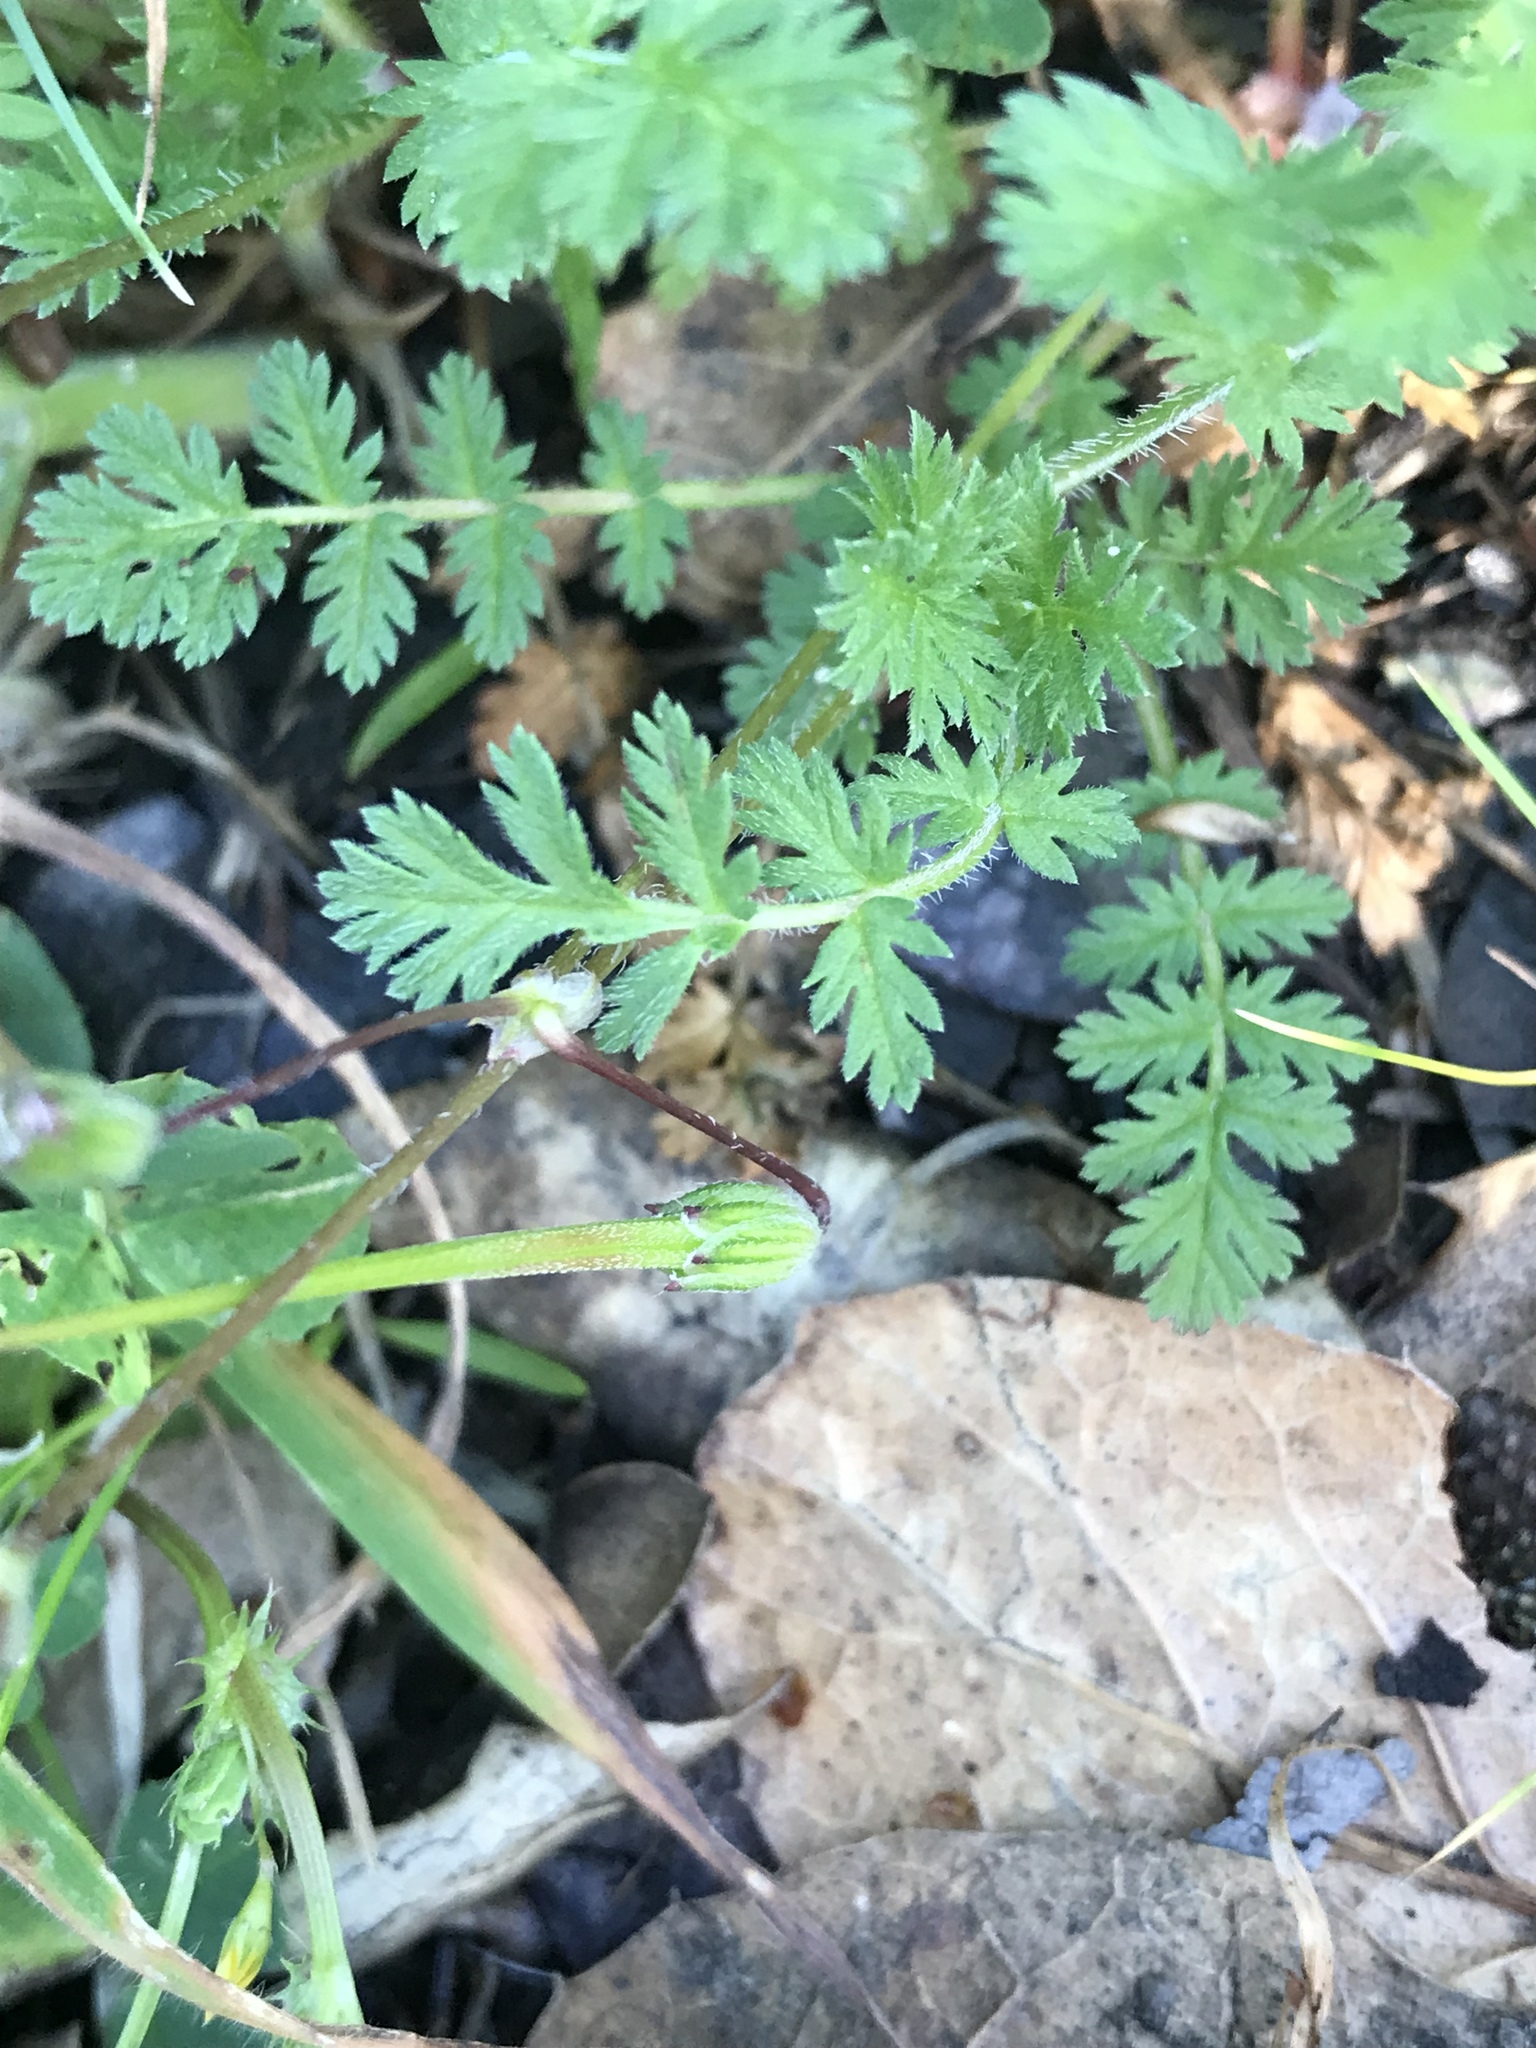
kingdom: Plantae
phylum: Tracheophyta
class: Magnoliopsida
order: Geraniales
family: Geraniaceae
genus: Erodium
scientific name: Erodium cicutarium
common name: Common stork's-bill
